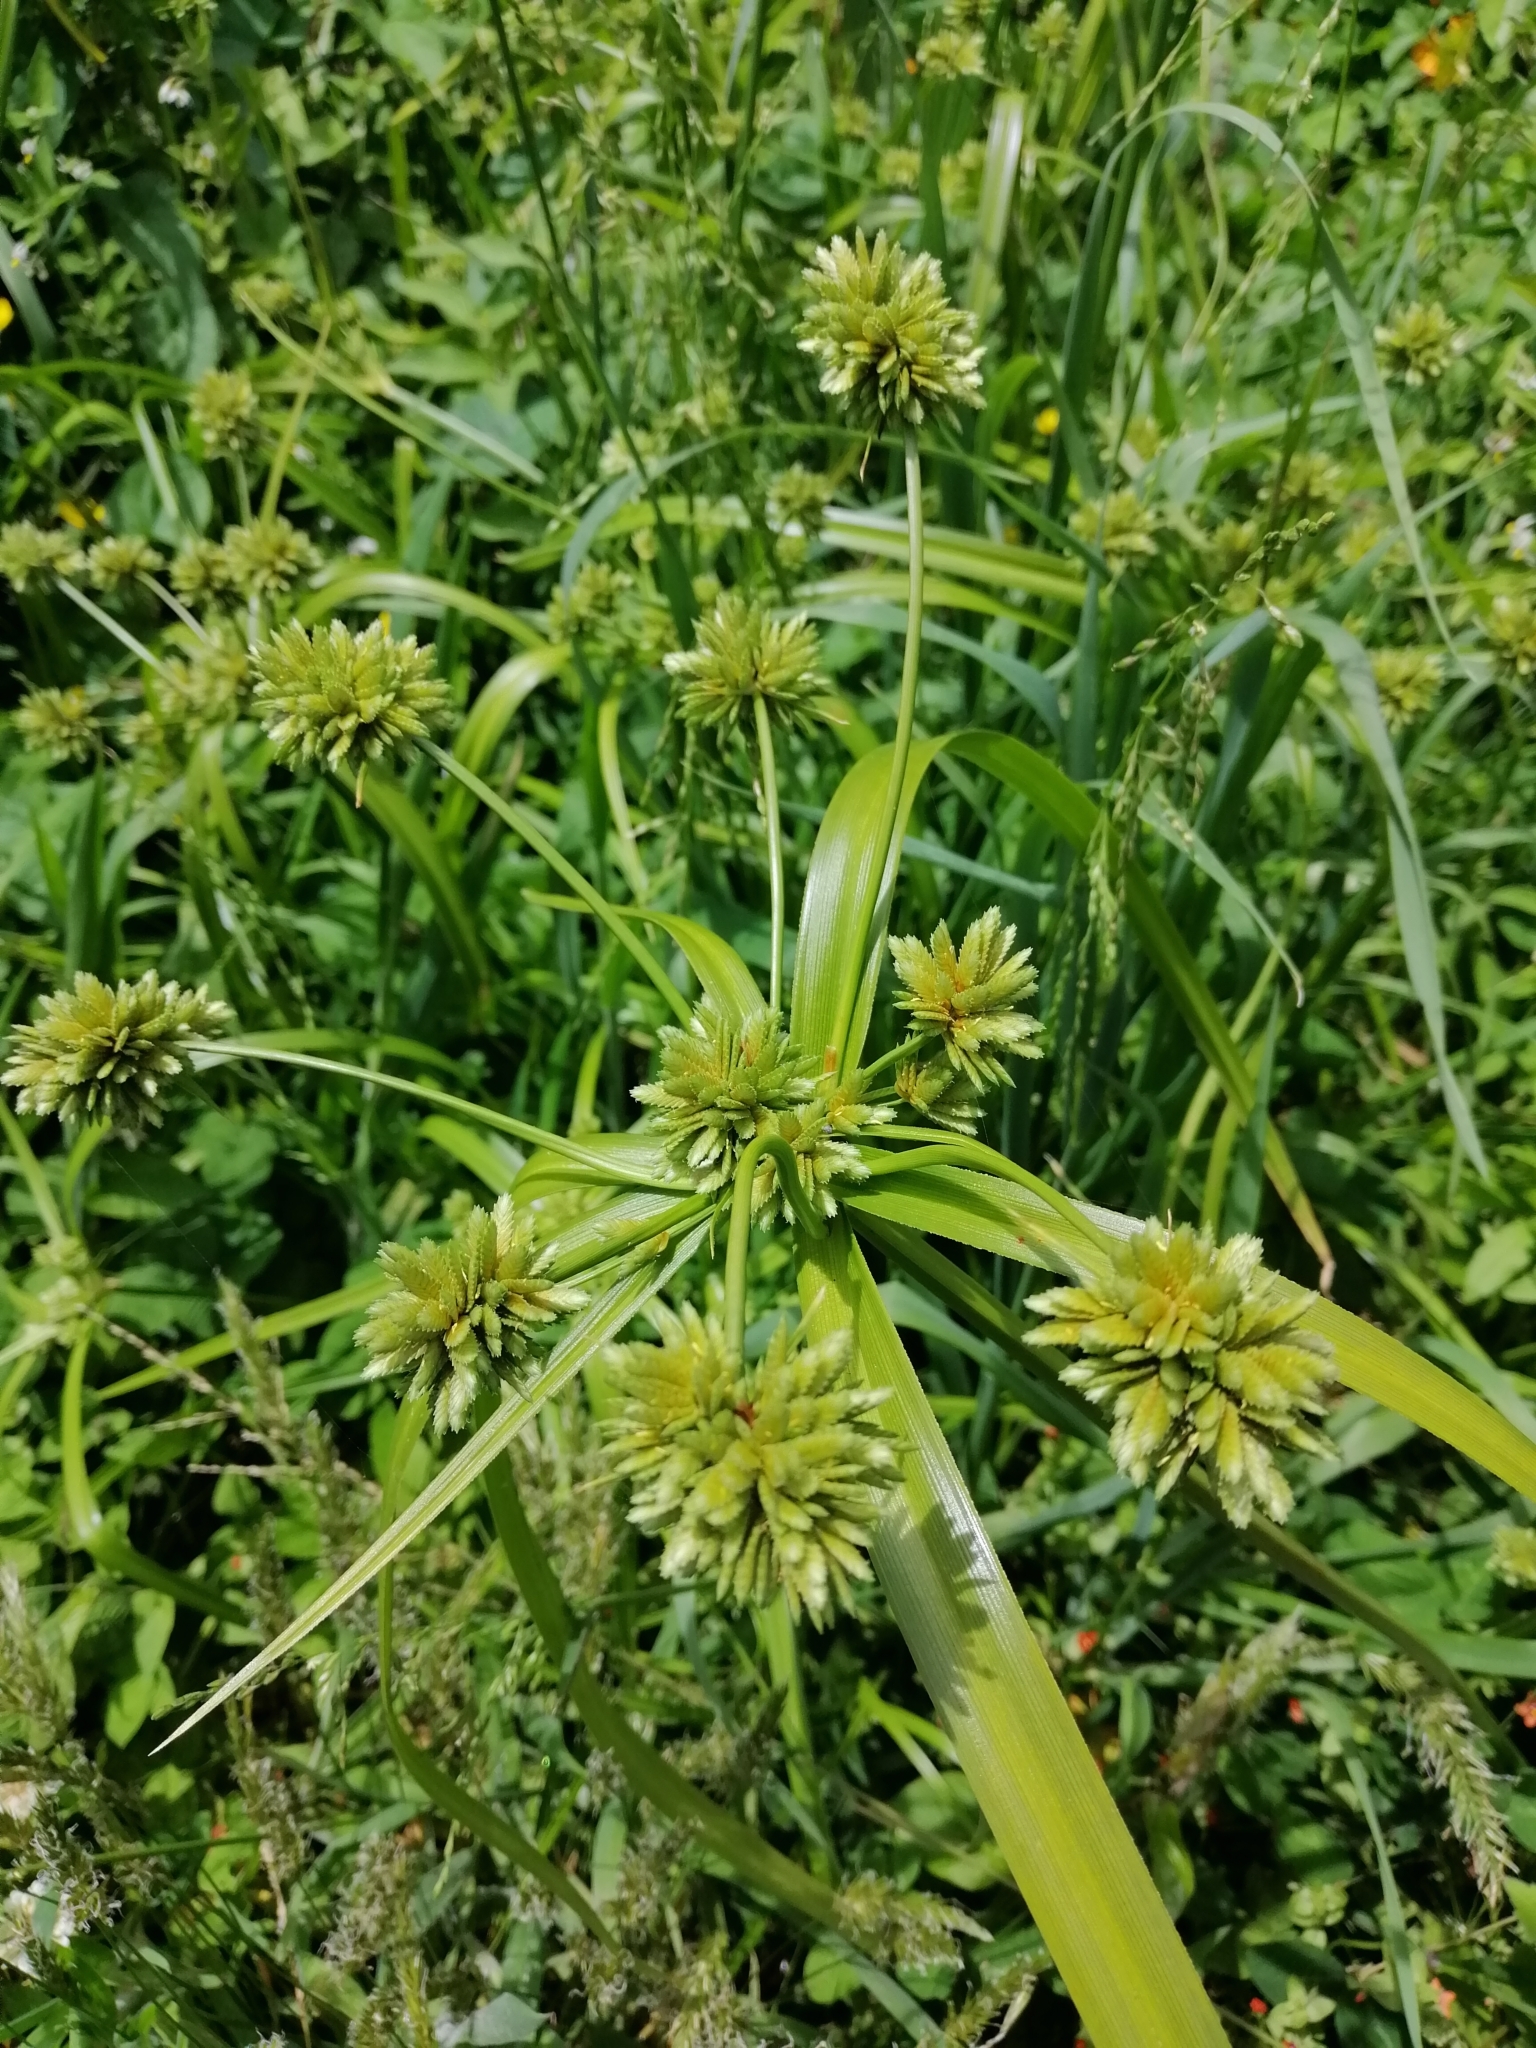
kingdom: Plantae
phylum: Tracheophyta
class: Liliopsida
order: Poales
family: Cyperaceae
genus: Cyperus
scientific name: Cyperus eragrostis
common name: Tall flatsedge
